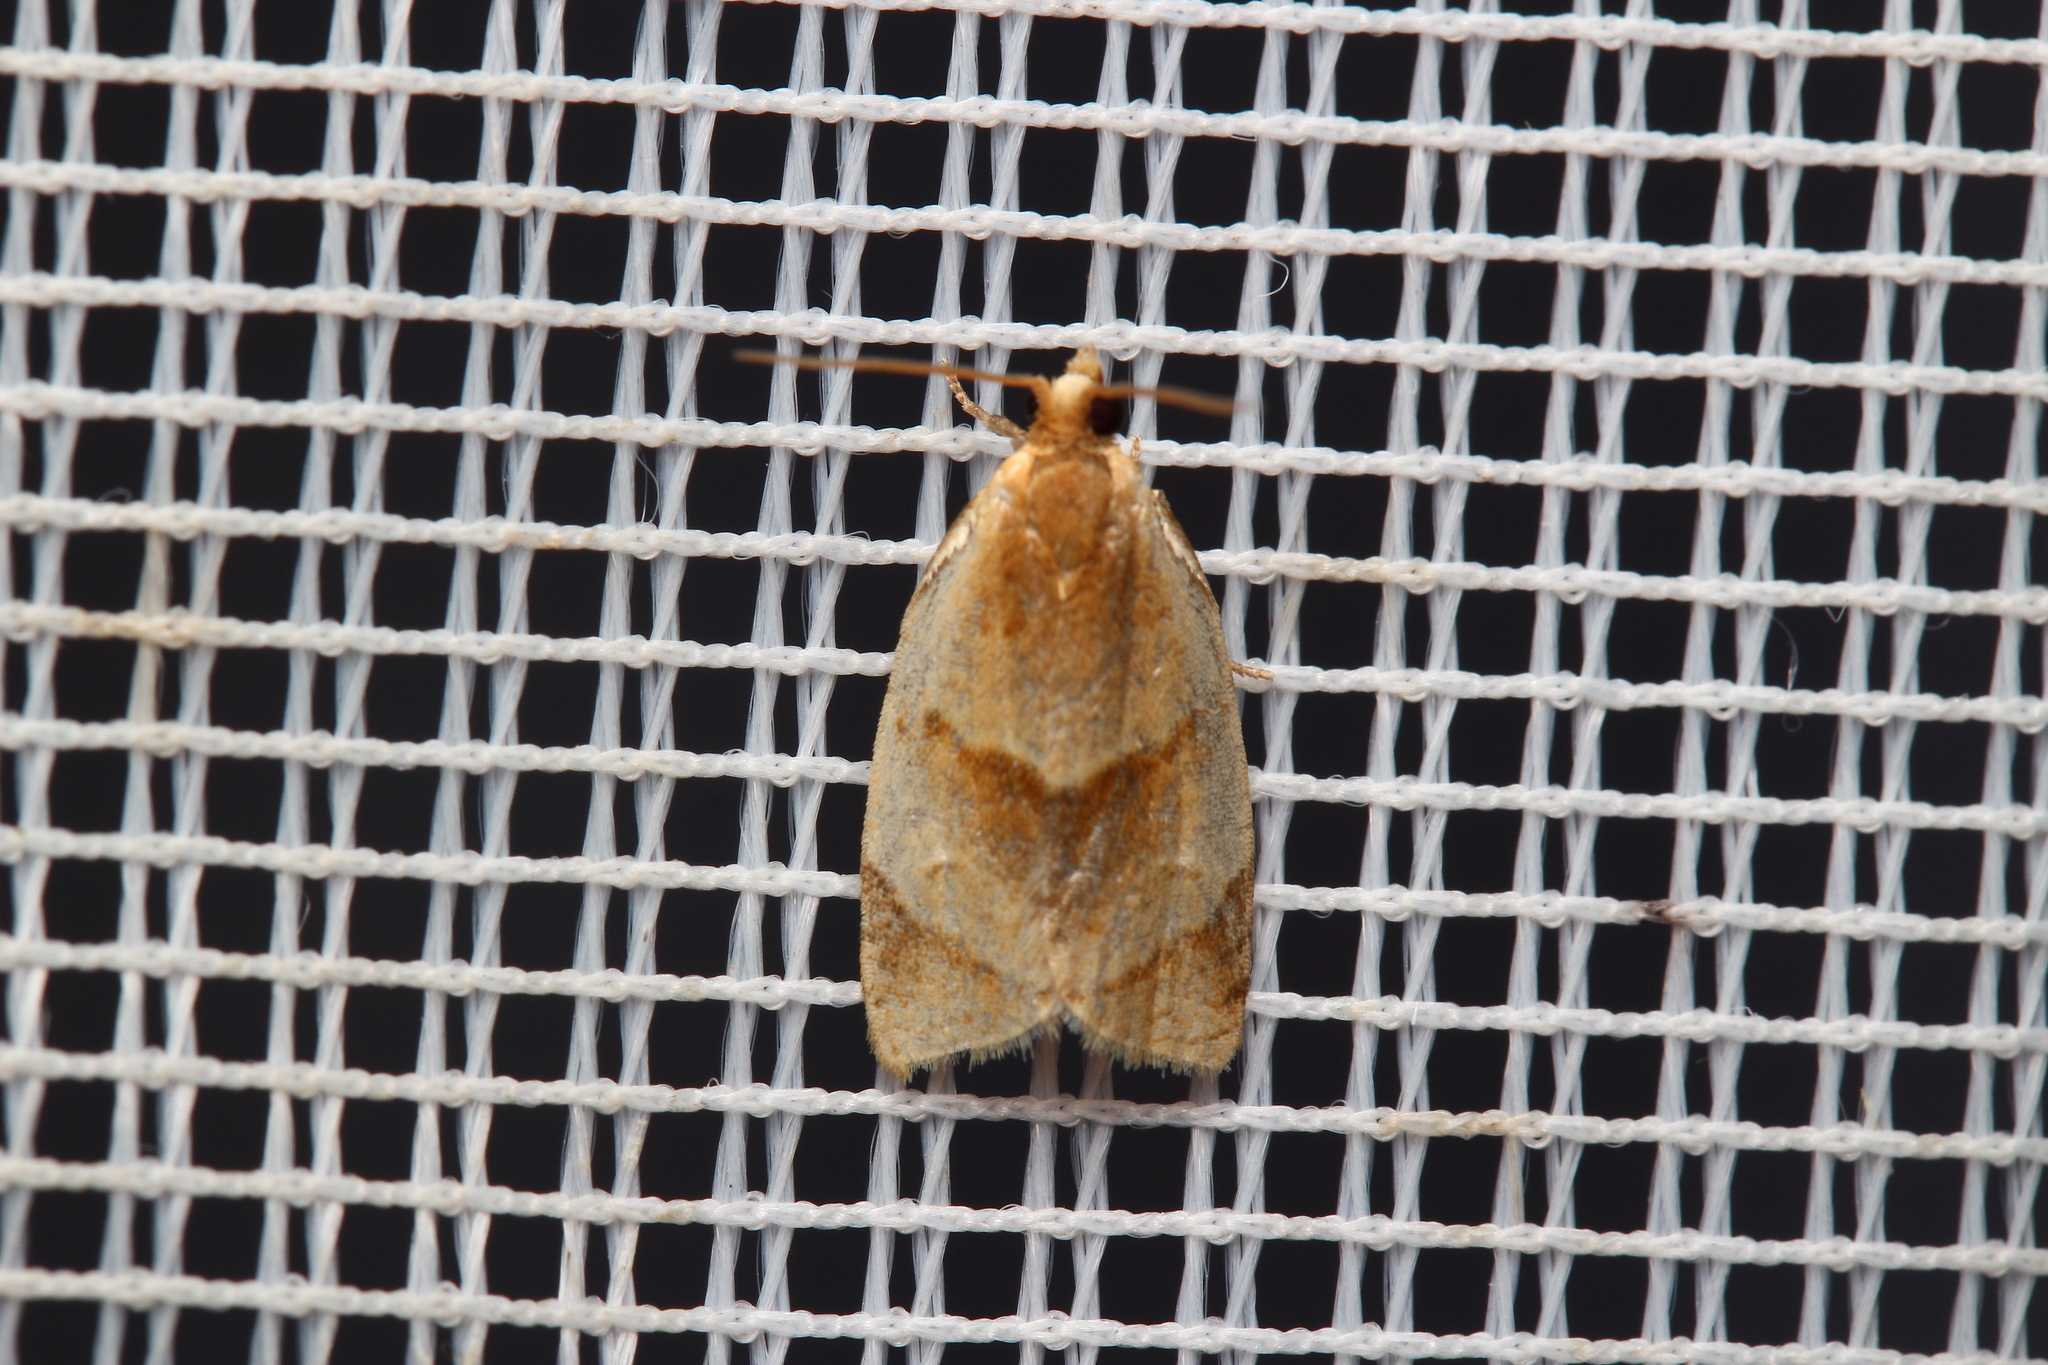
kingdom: Animalia
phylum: Arthropoda
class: Insecta
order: Lepidoptera
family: Tortricidae
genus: Clepsis
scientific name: Clepsis rurinana
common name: Pale twist
